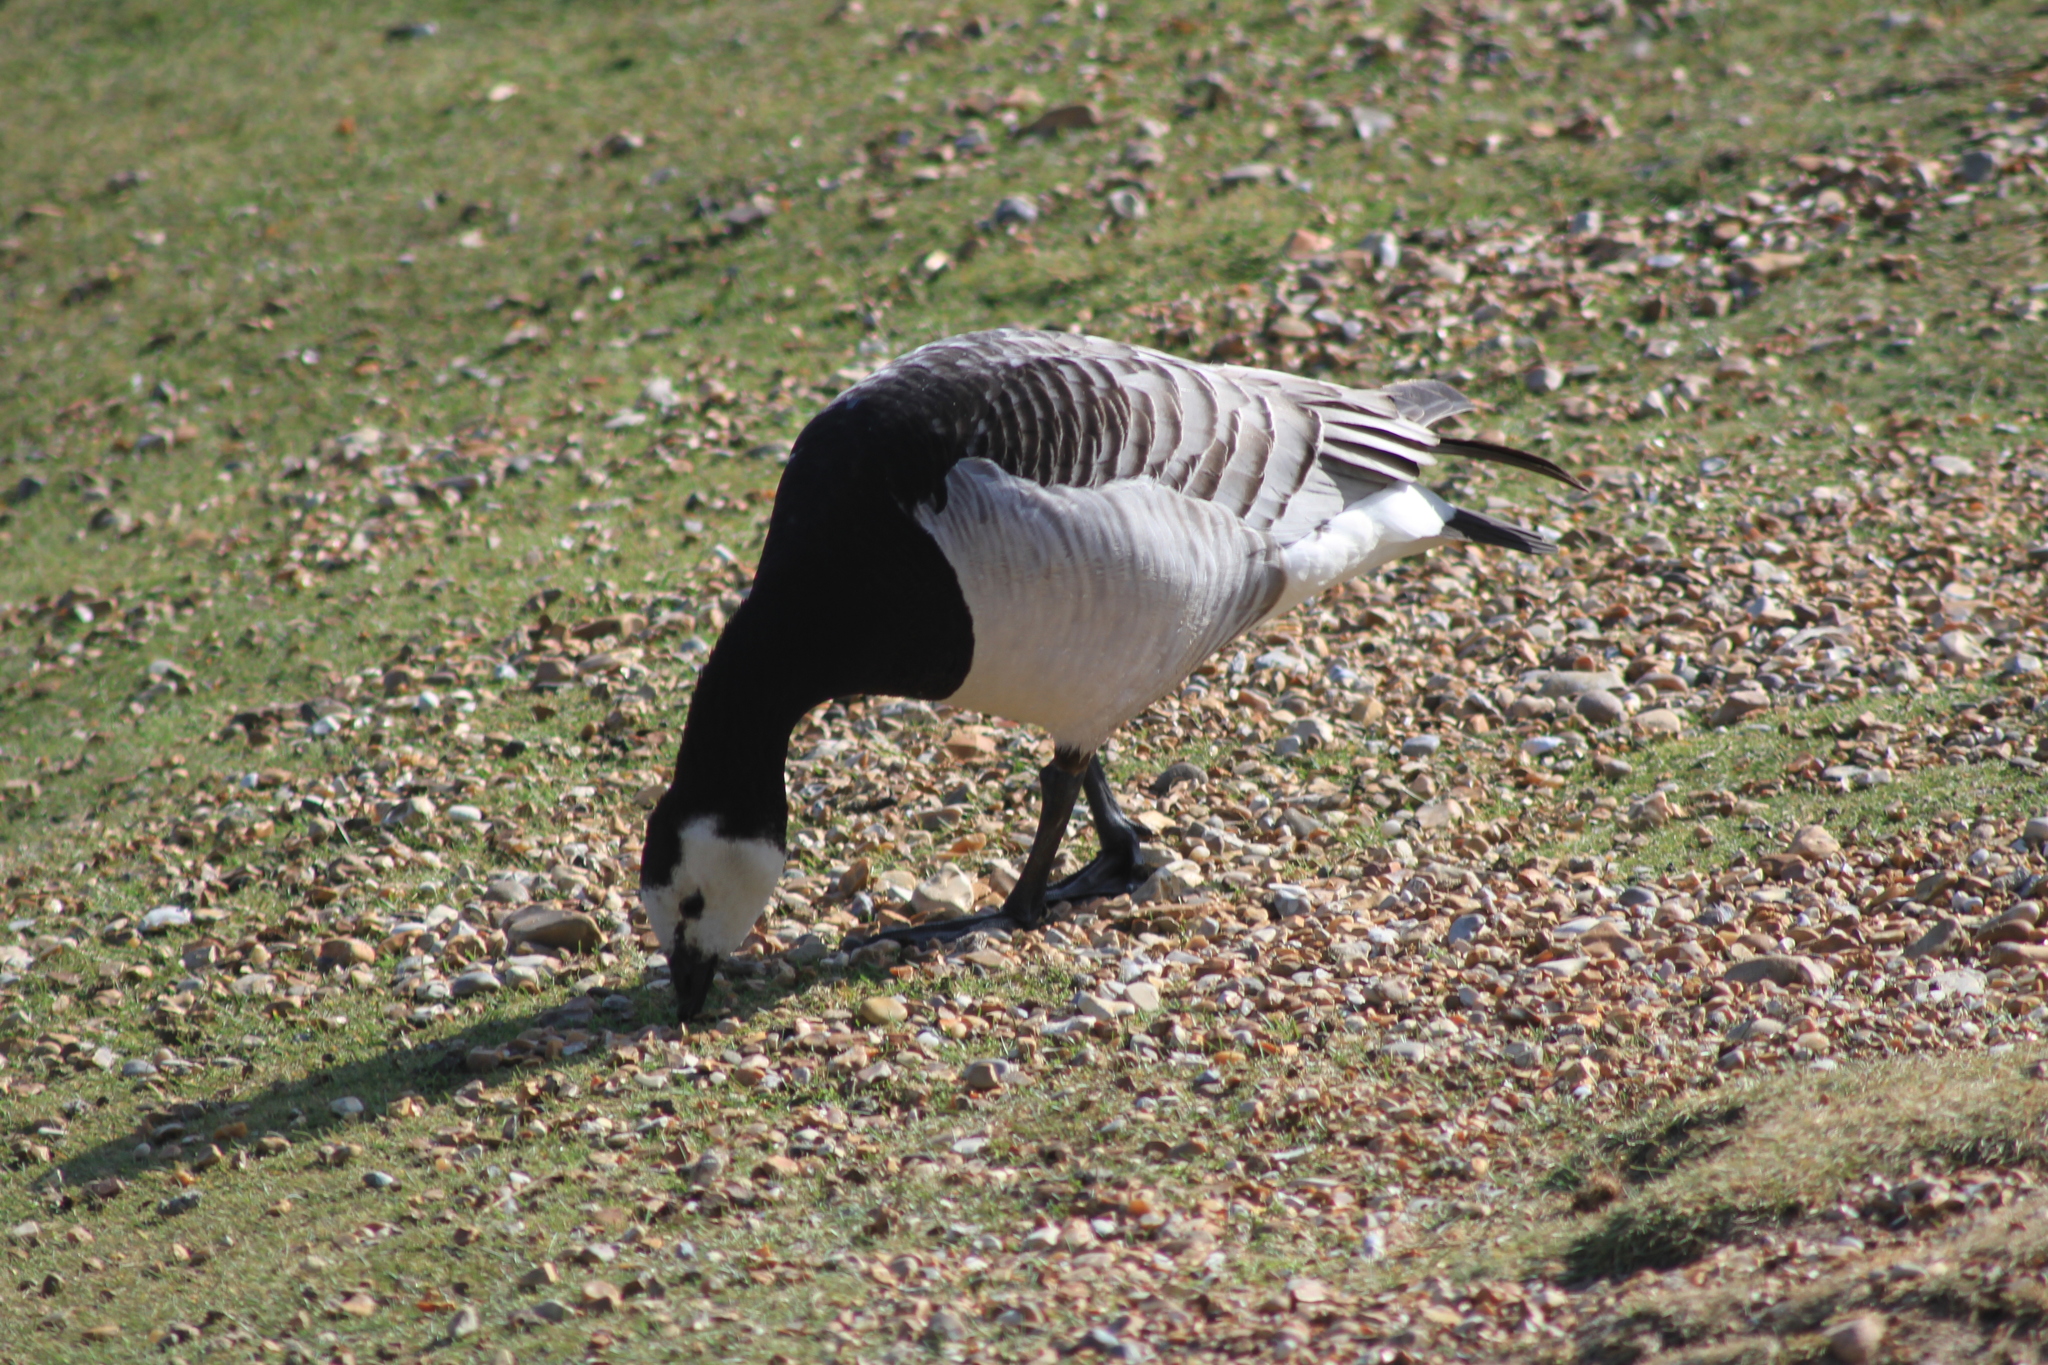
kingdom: Animalia
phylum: Chordata
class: Aves
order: Anseriformes
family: Anatidae
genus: Branta
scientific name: Branta leucopsis
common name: Barnacle goose
